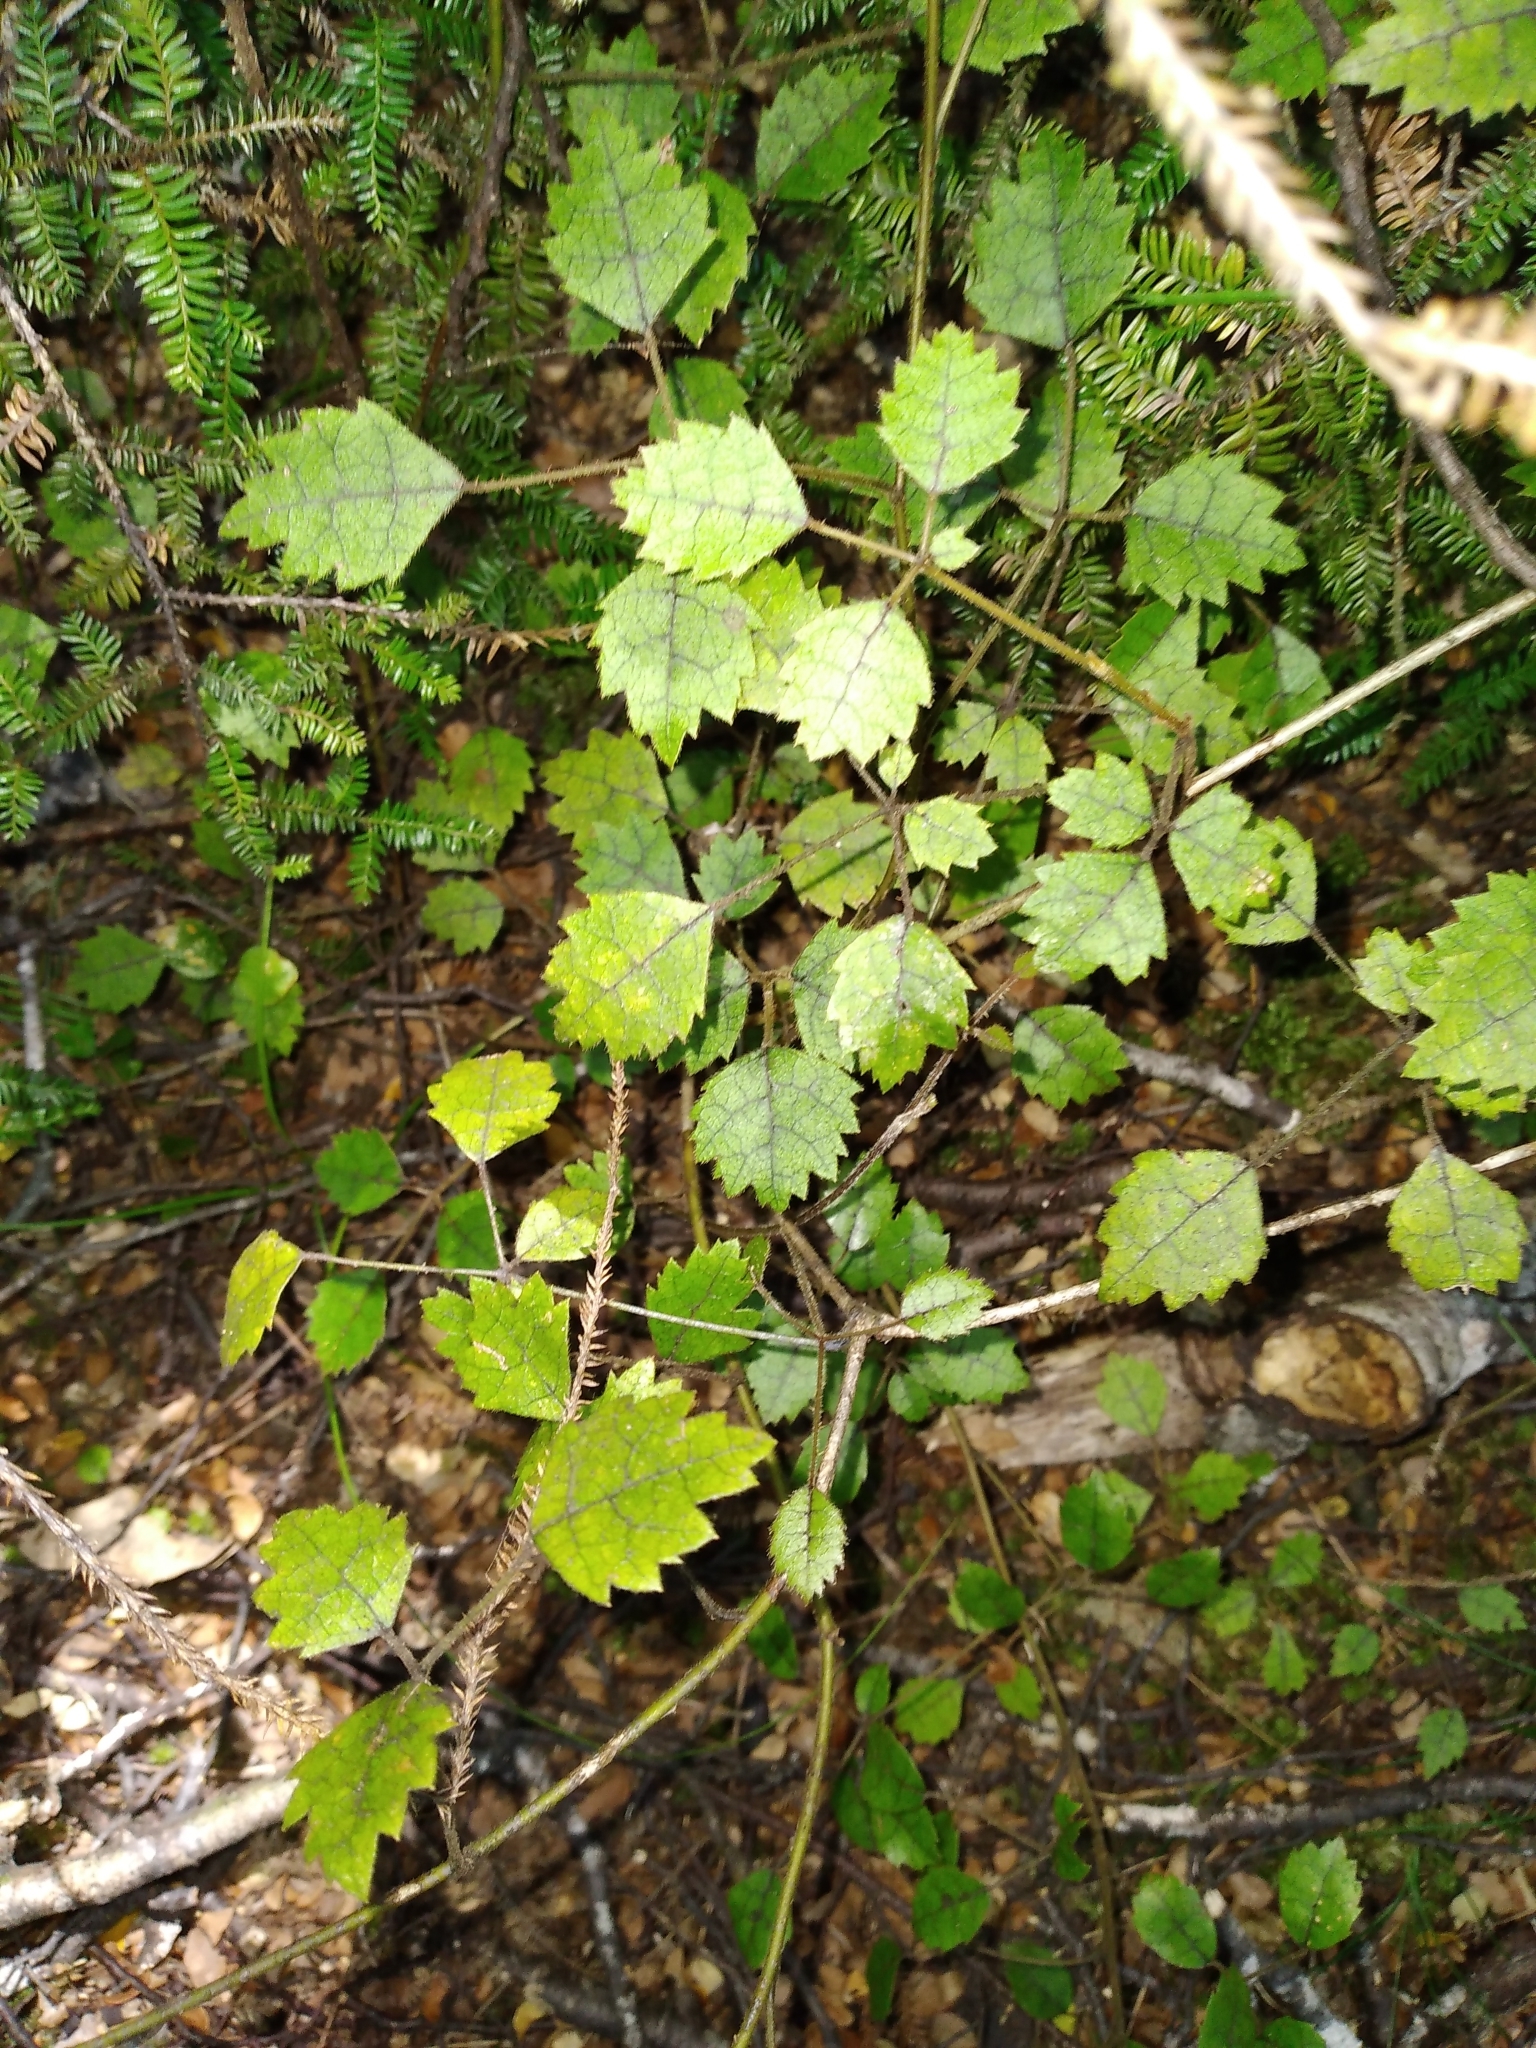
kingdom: Plantae
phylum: Tracheophyta
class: Magnoliopsida
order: Rosales
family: Rosaceae
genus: Rubus
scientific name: Rubus australis
